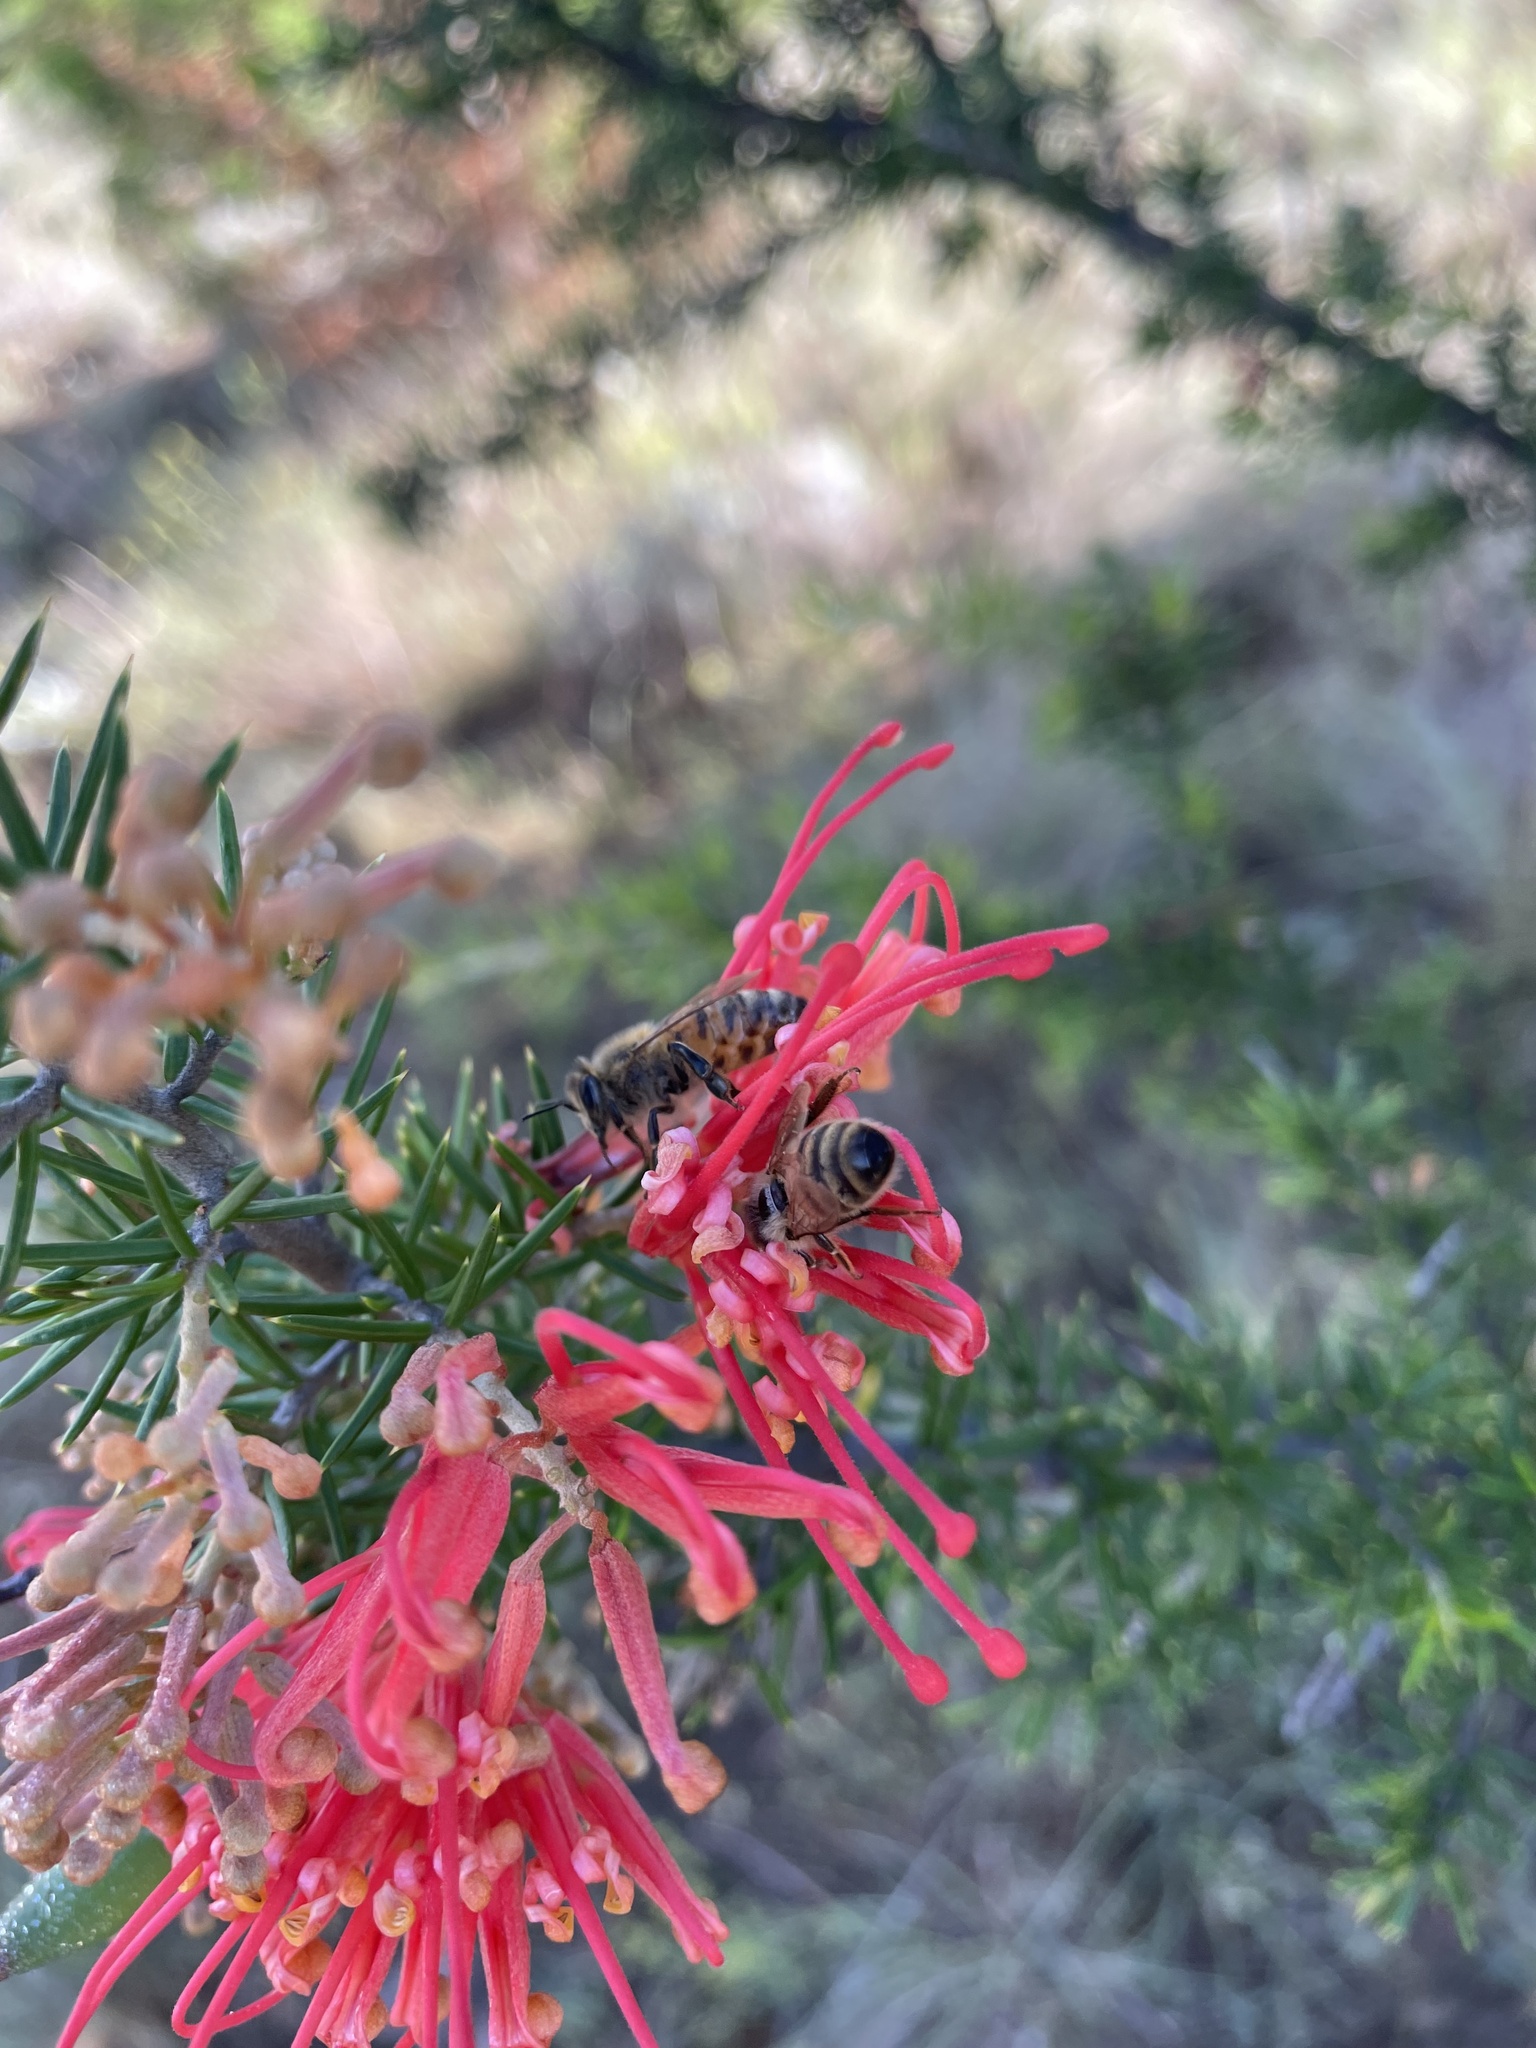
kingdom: Animalia
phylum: Arthropoda
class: Insecta
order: Hymenoptera
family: Apidae
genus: Apis
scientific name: Apis mellifera
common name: Honey bee
